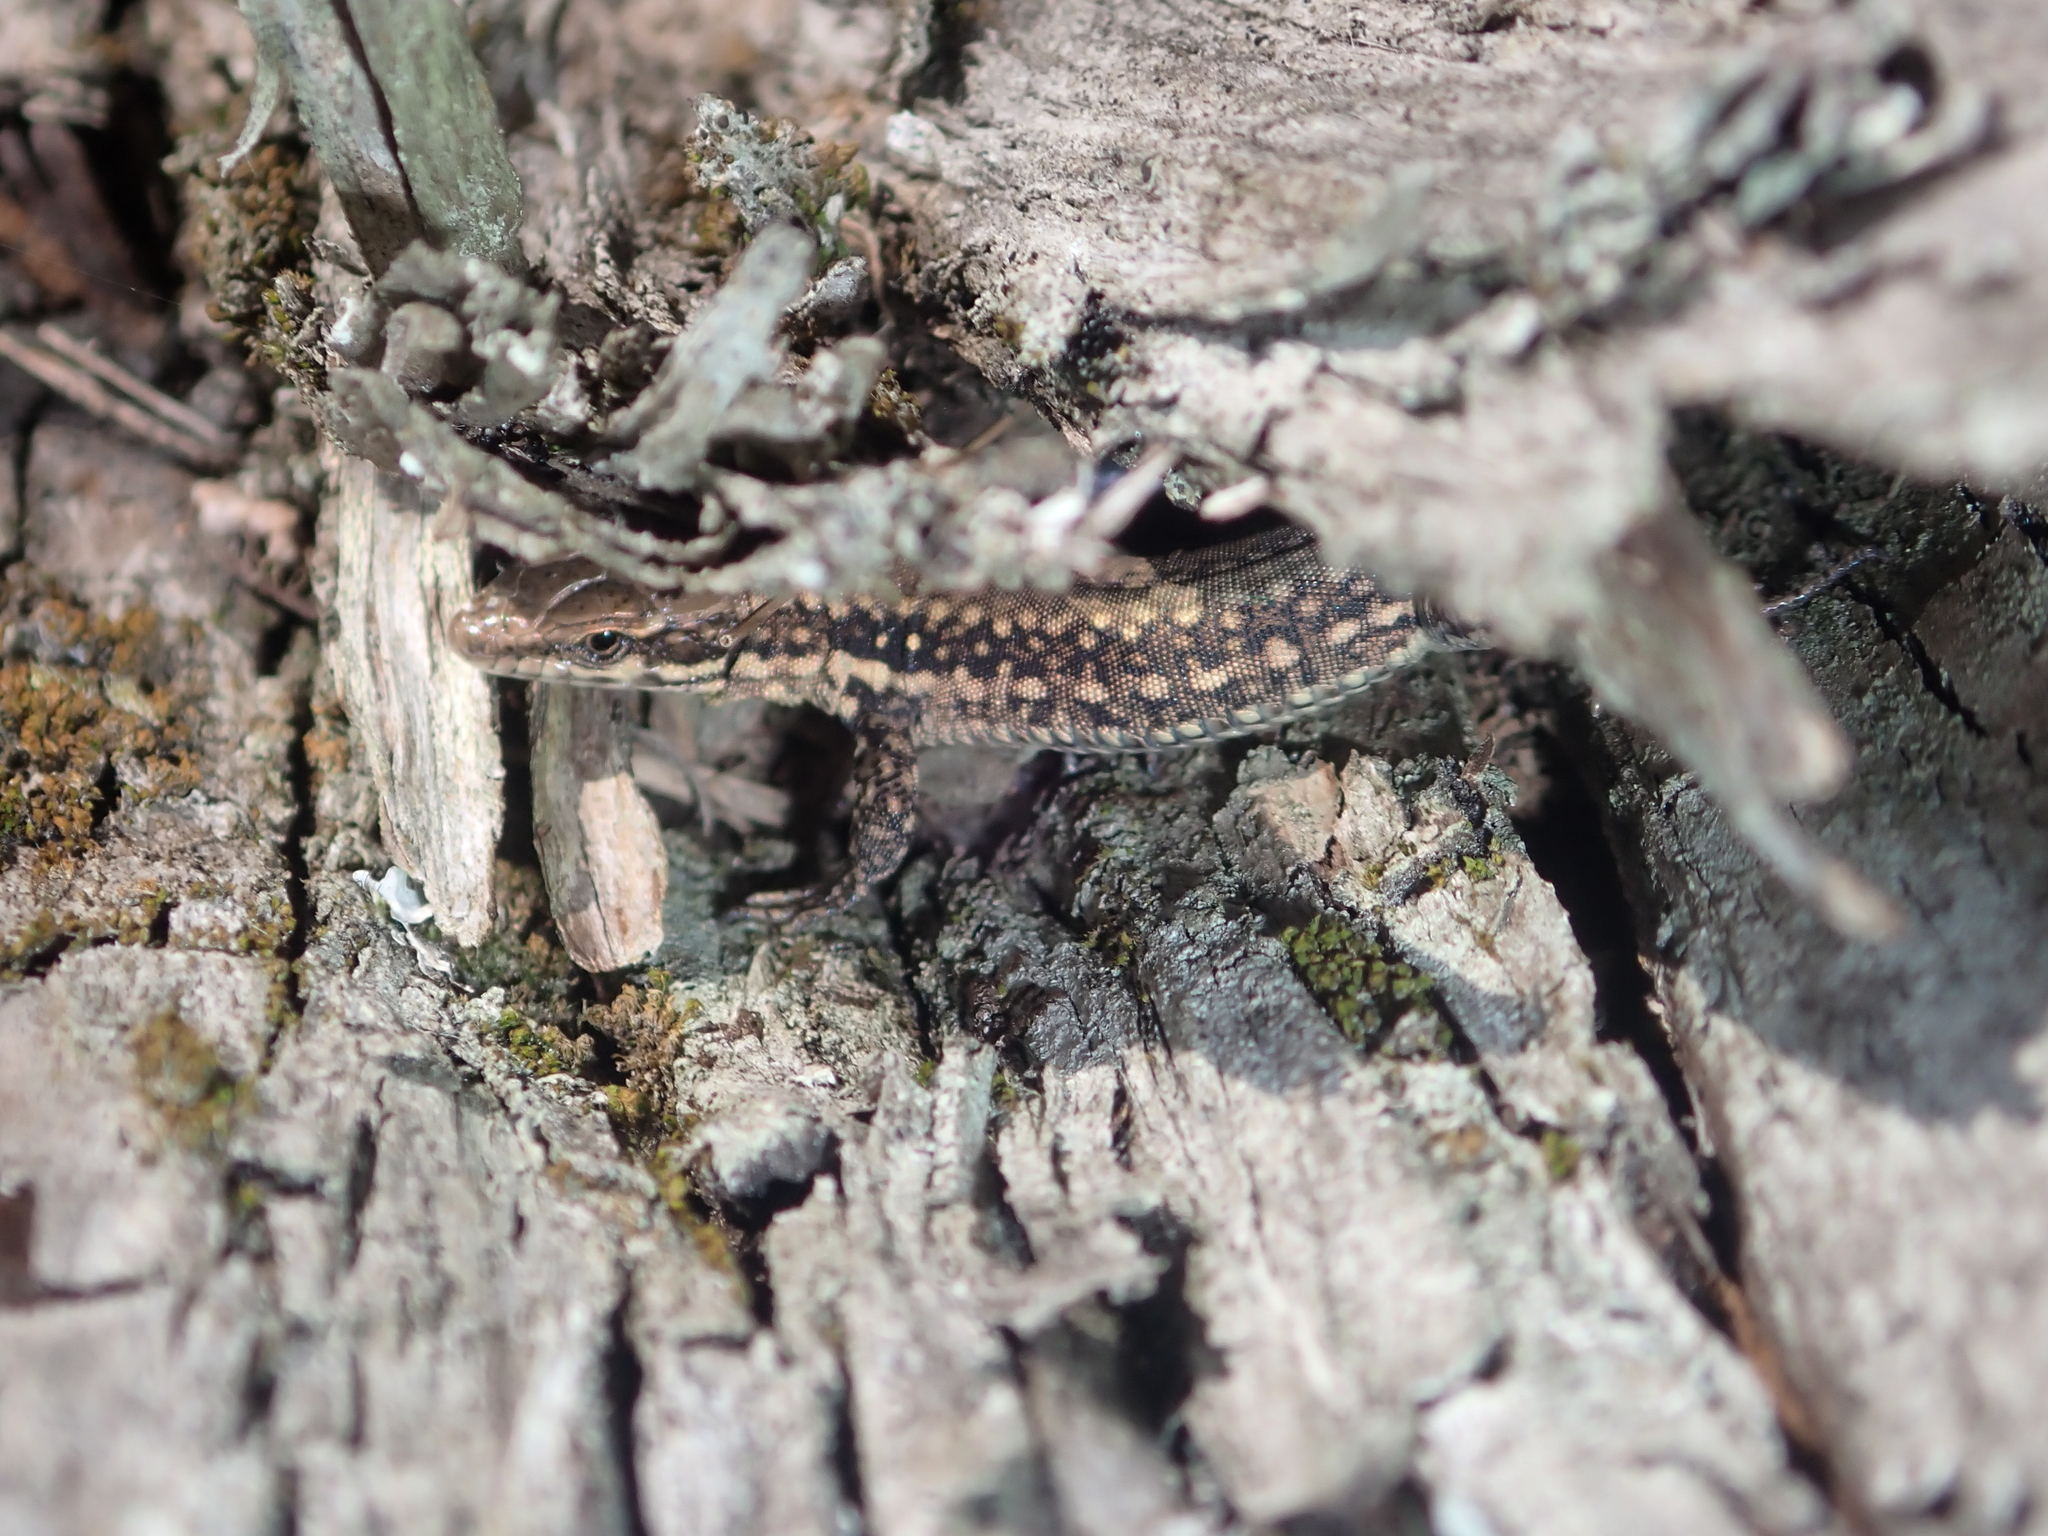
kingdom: Animalia
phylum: Chordata
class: Squamata
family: Lacertidae
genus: Podarcis
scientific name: Podarcis muralis
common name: Common wall lizard
